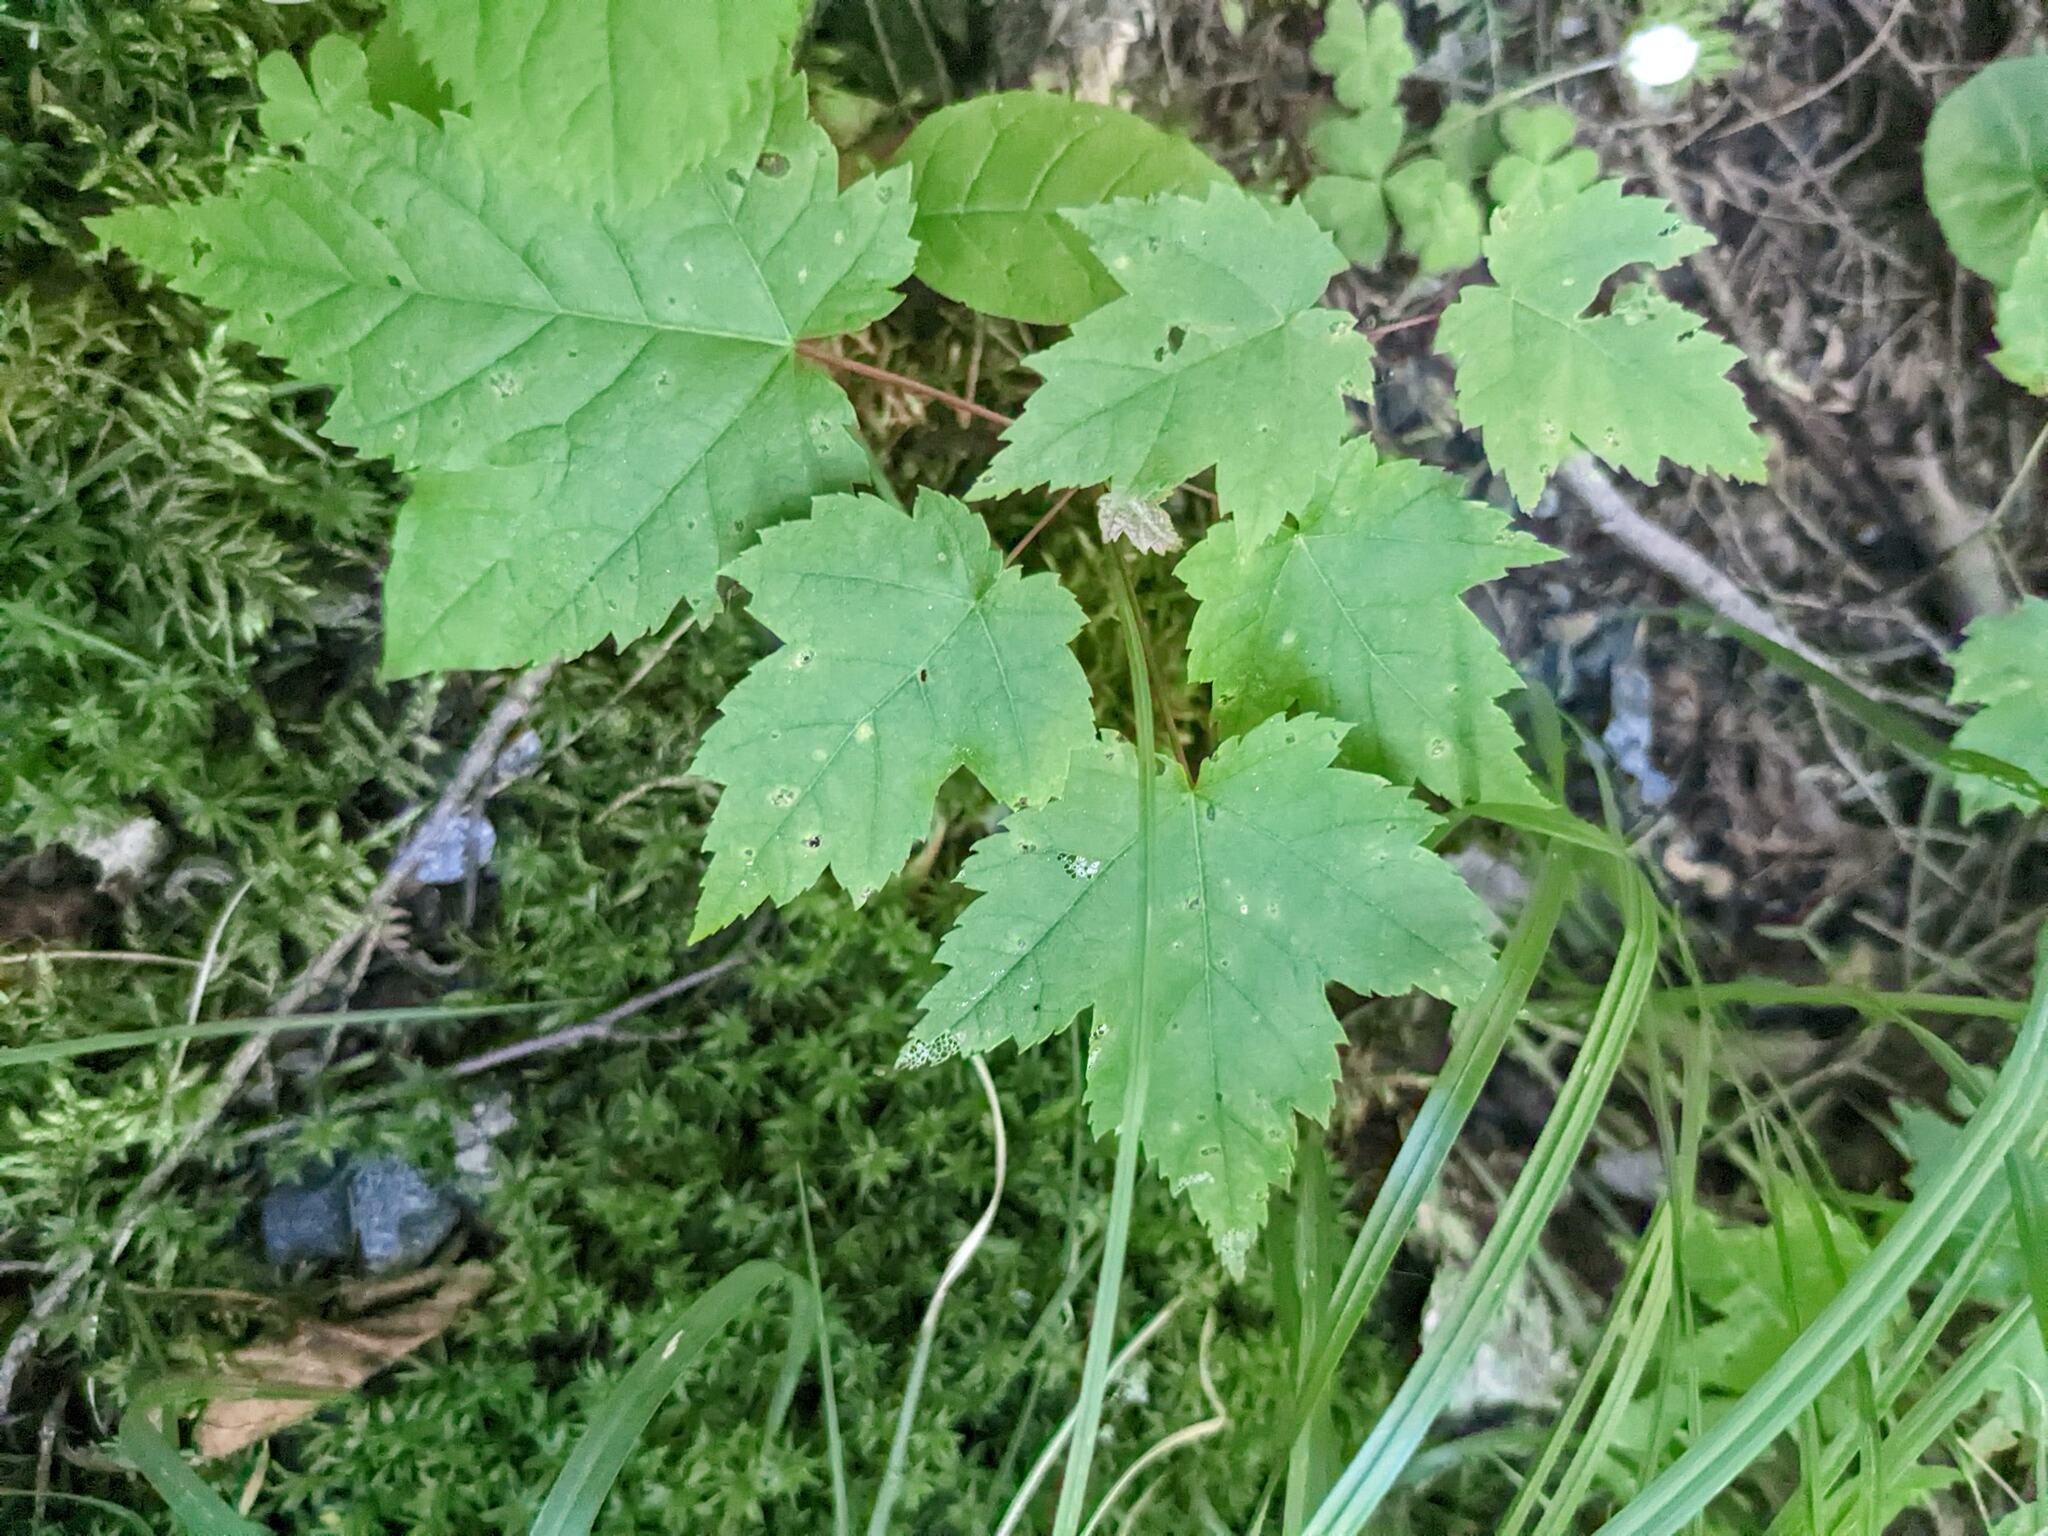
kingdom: Plantae
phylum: Tracheophyta
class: Magnoliopsida
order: Sapindales
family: Sapindaceae
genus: Acer
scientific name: Acer rubrum
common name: Red maple
